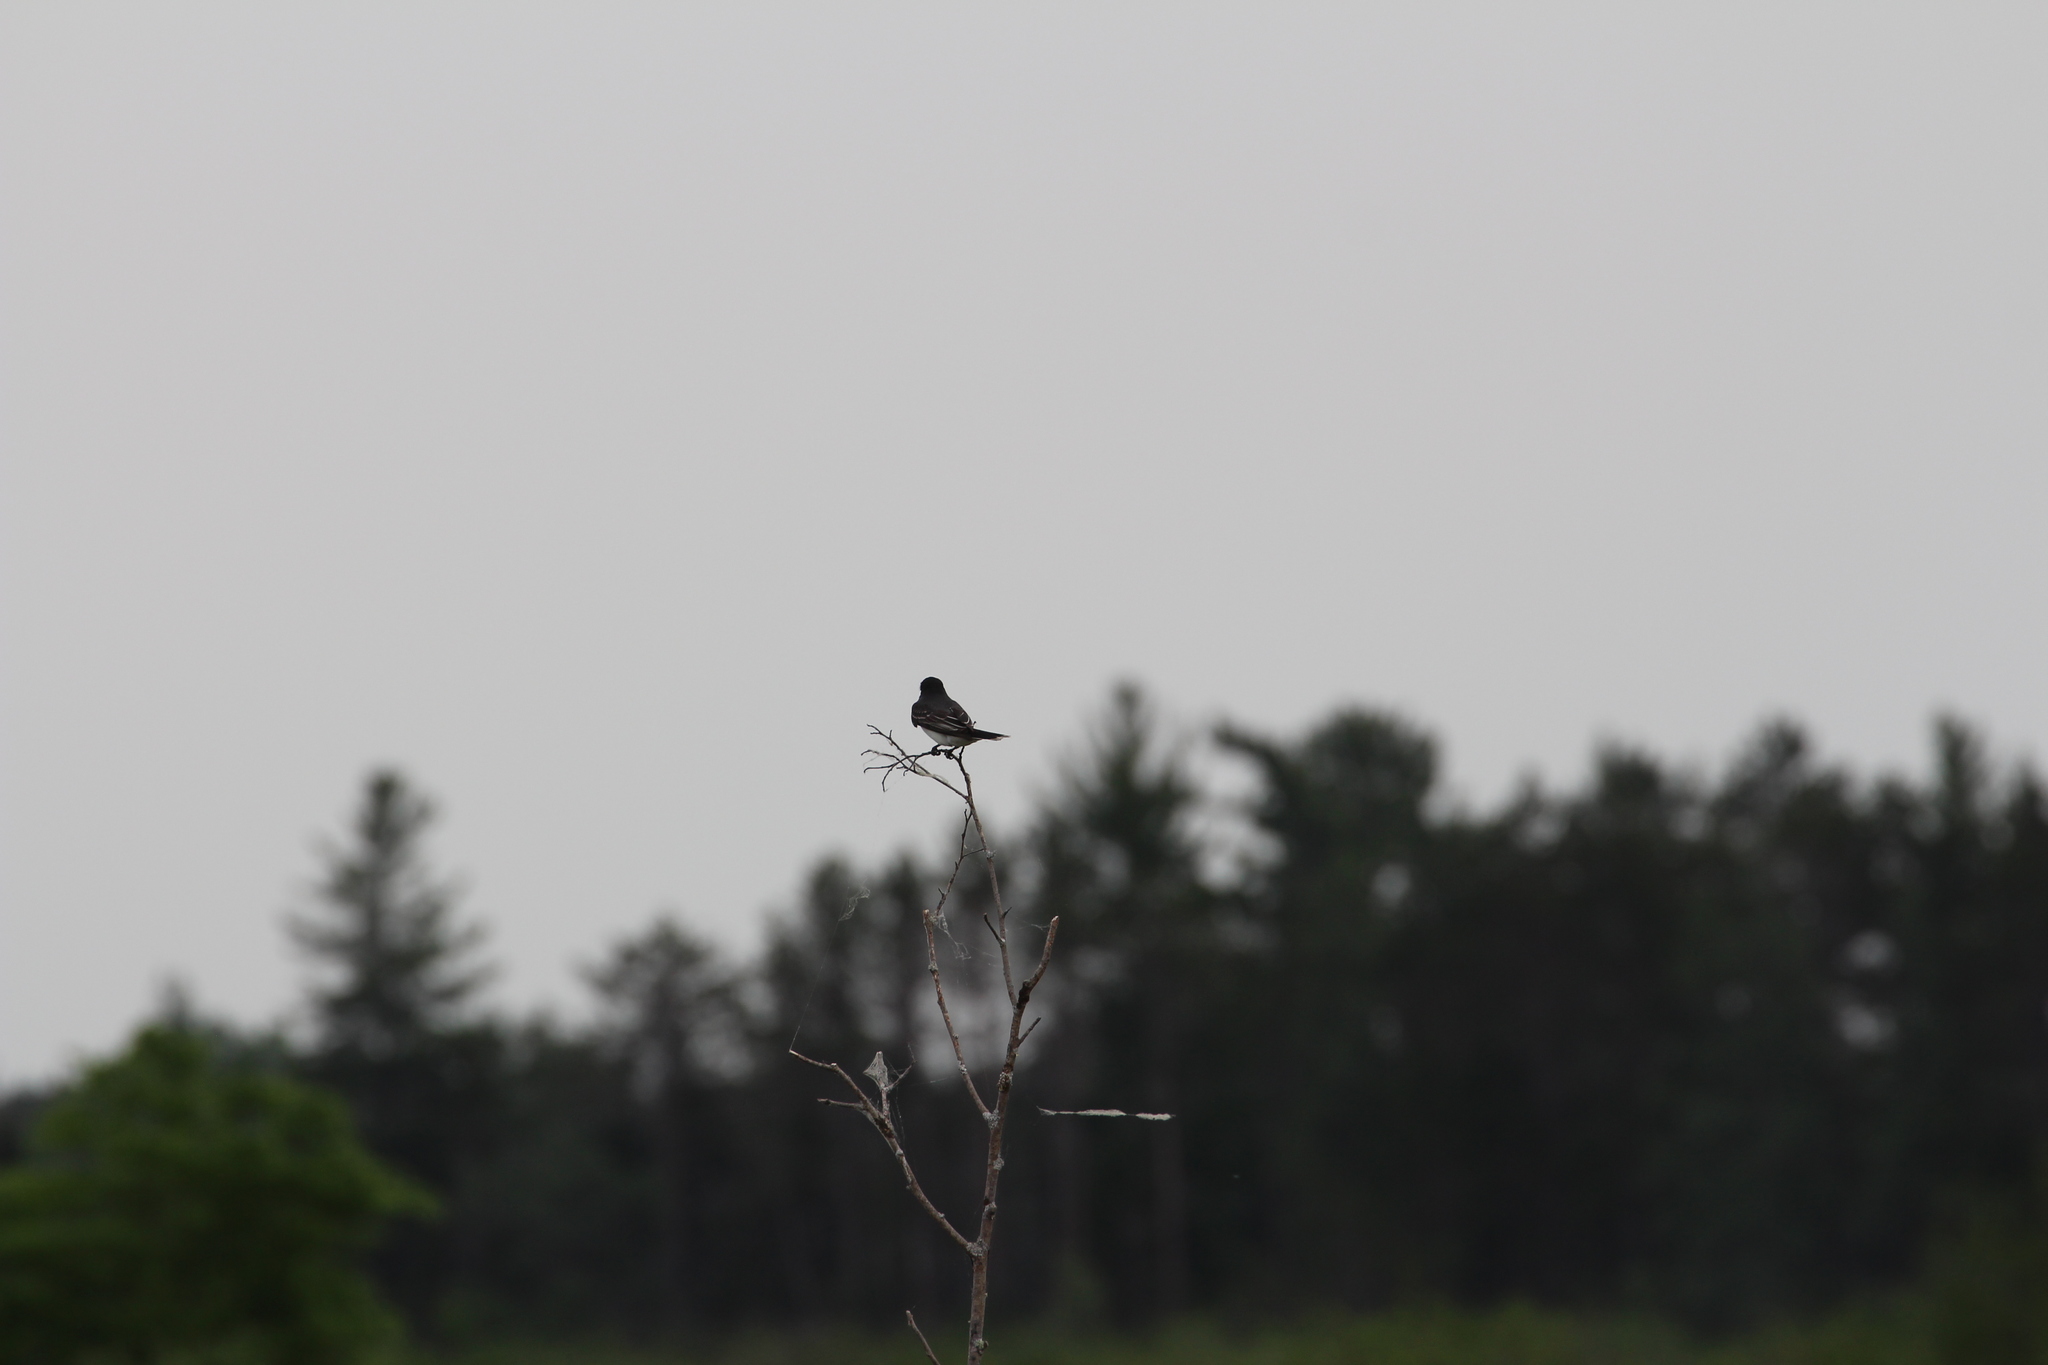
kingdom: Animalia
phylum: Chordata
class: Aves
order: Passeriformes
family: Tyrannidae
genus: Tyrannus
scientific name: Tyrannus tyrannus
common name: Eastern kingbird
